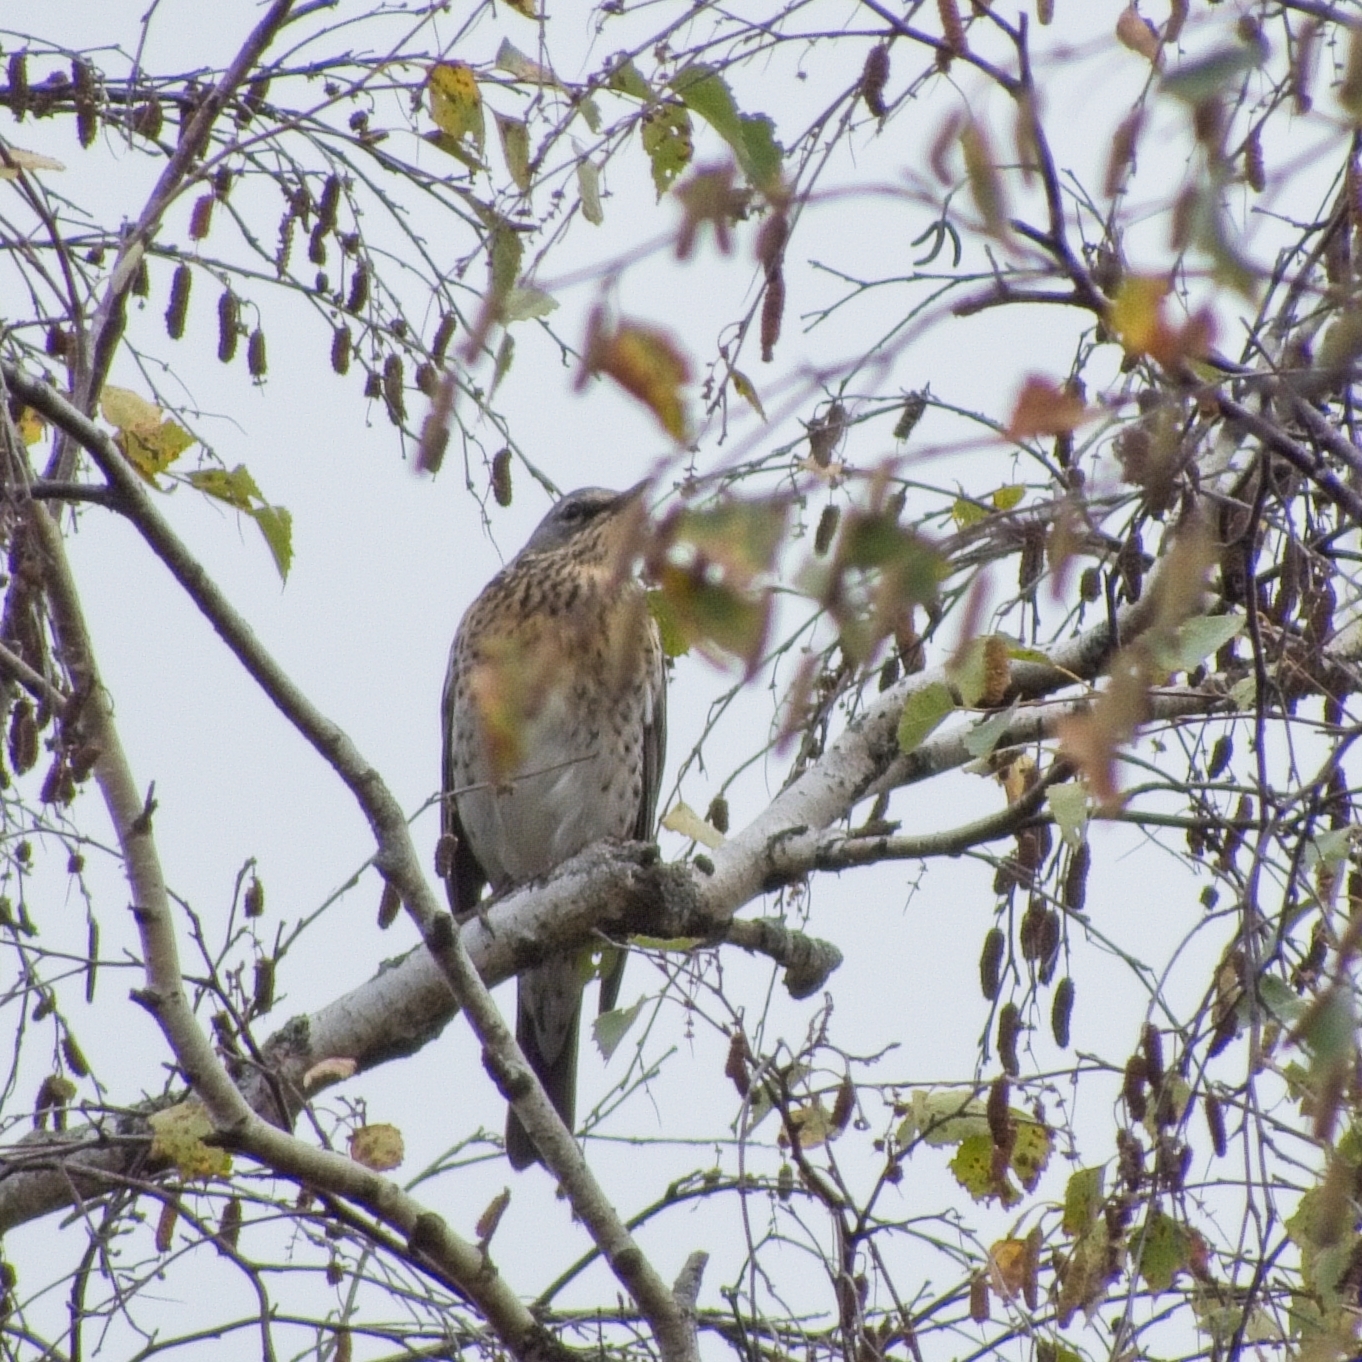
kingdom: Animalia
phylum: Chordata
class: Aves
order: Passeriformes
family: Turdidae
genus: Turdus
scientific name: Turdus pilaris
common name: Fieldfare
